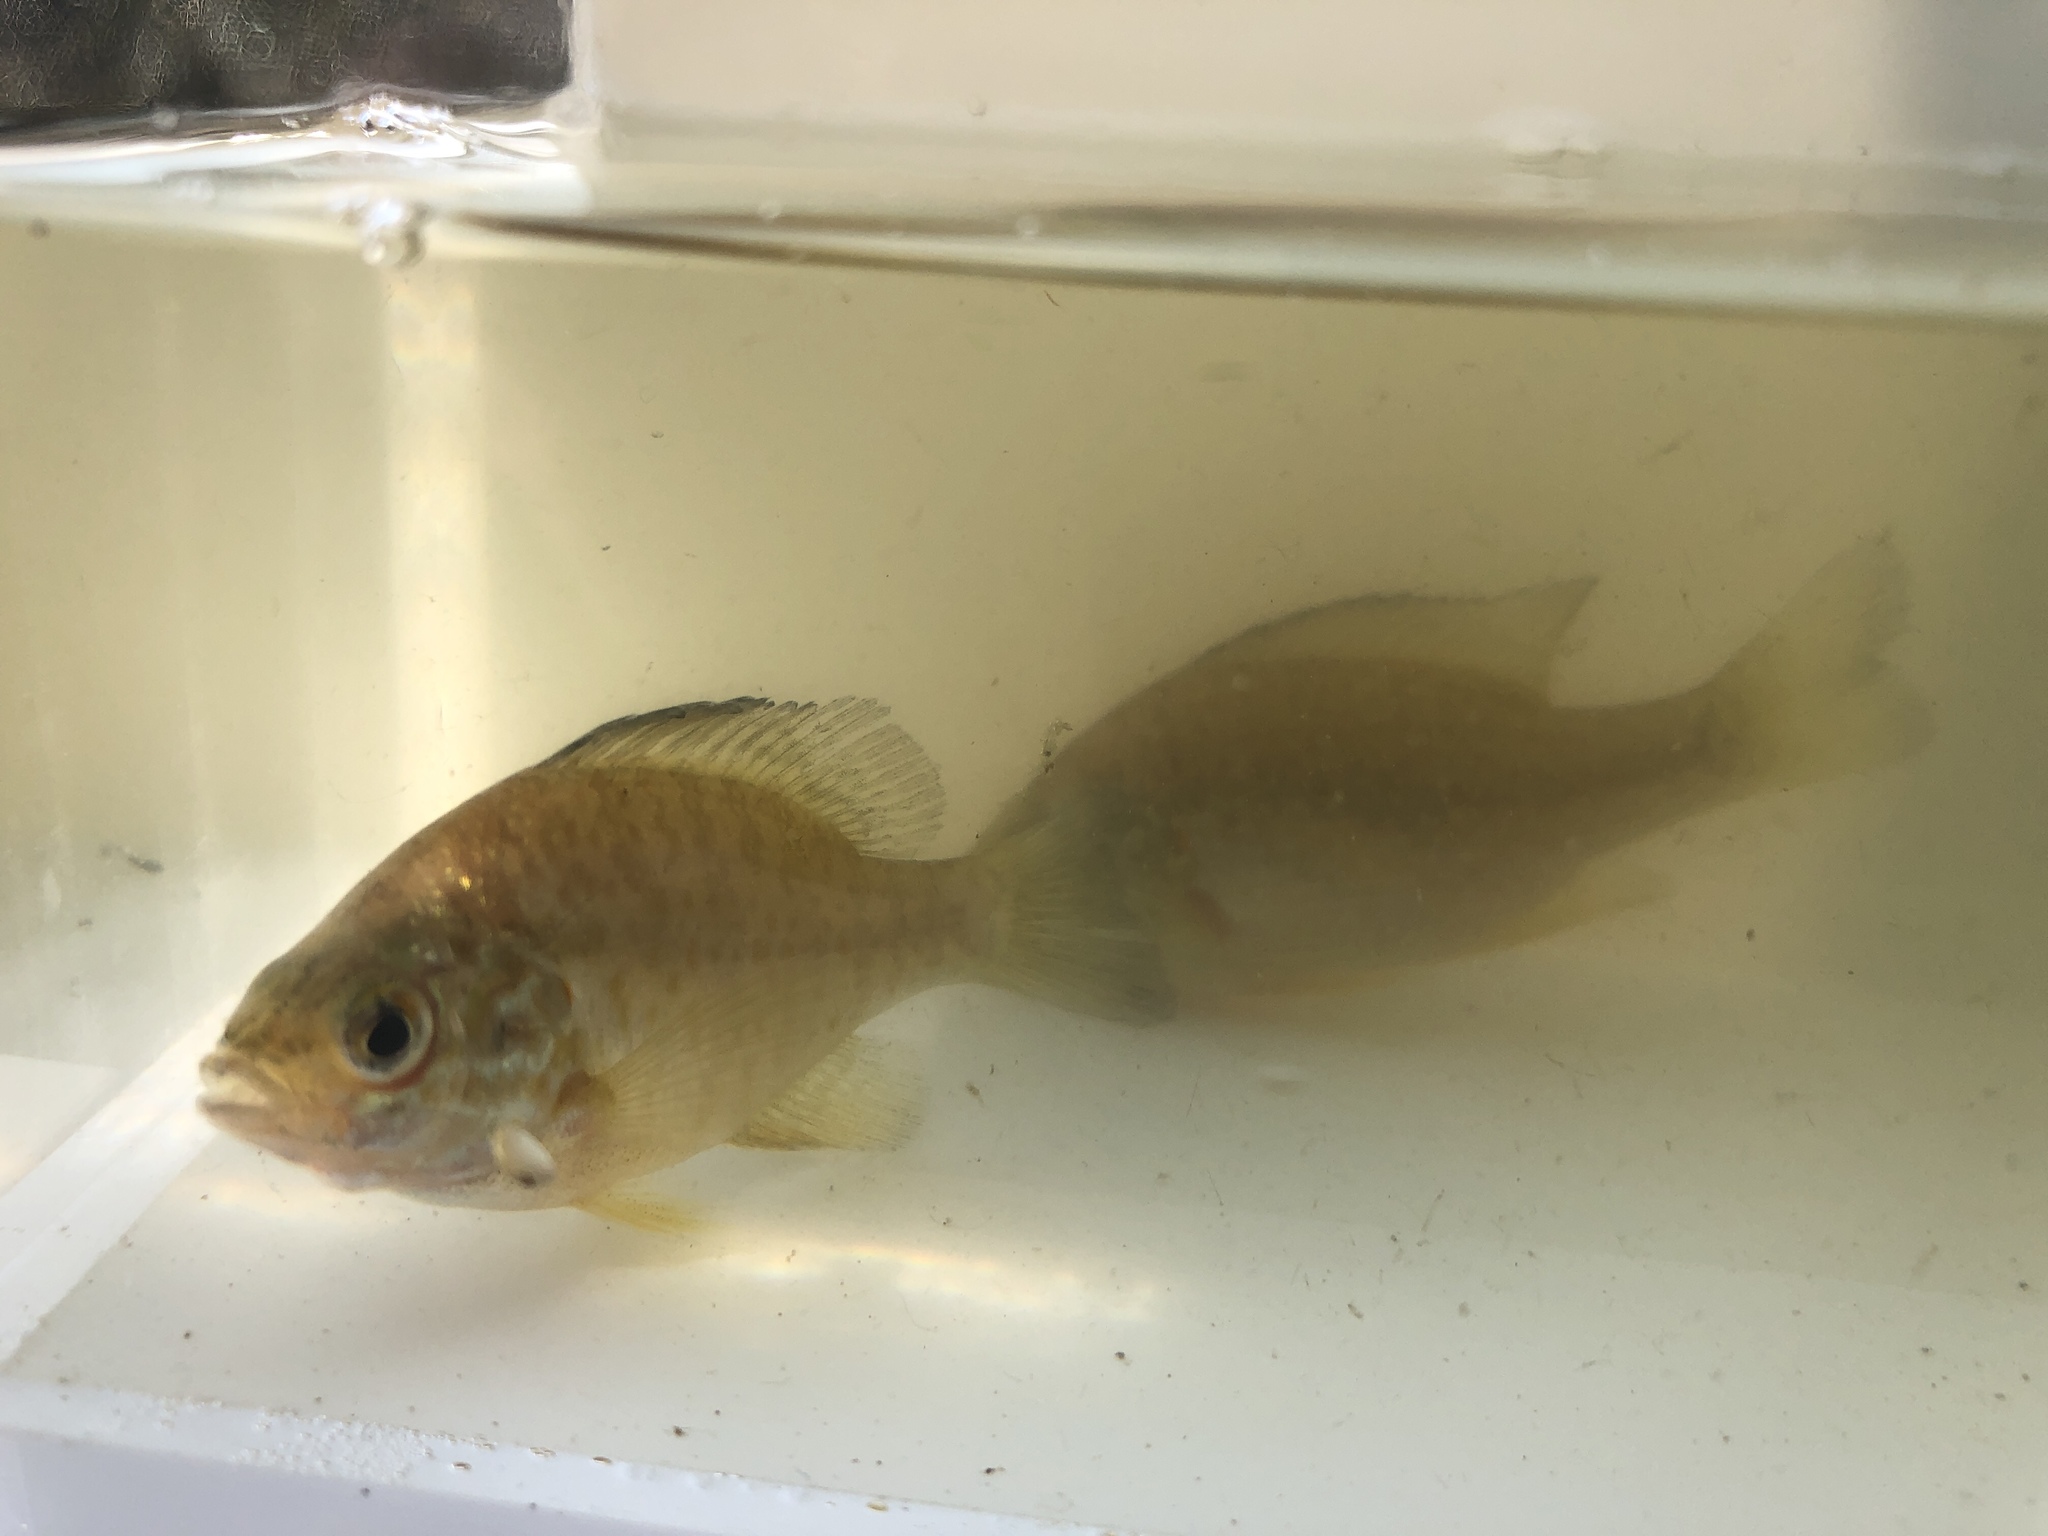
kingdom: Animalia
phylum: Chordata
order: Perciformes
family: Centrarchidae
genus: Lepomis
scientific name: Lepomis gibbosus
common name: Pumpkinseed
